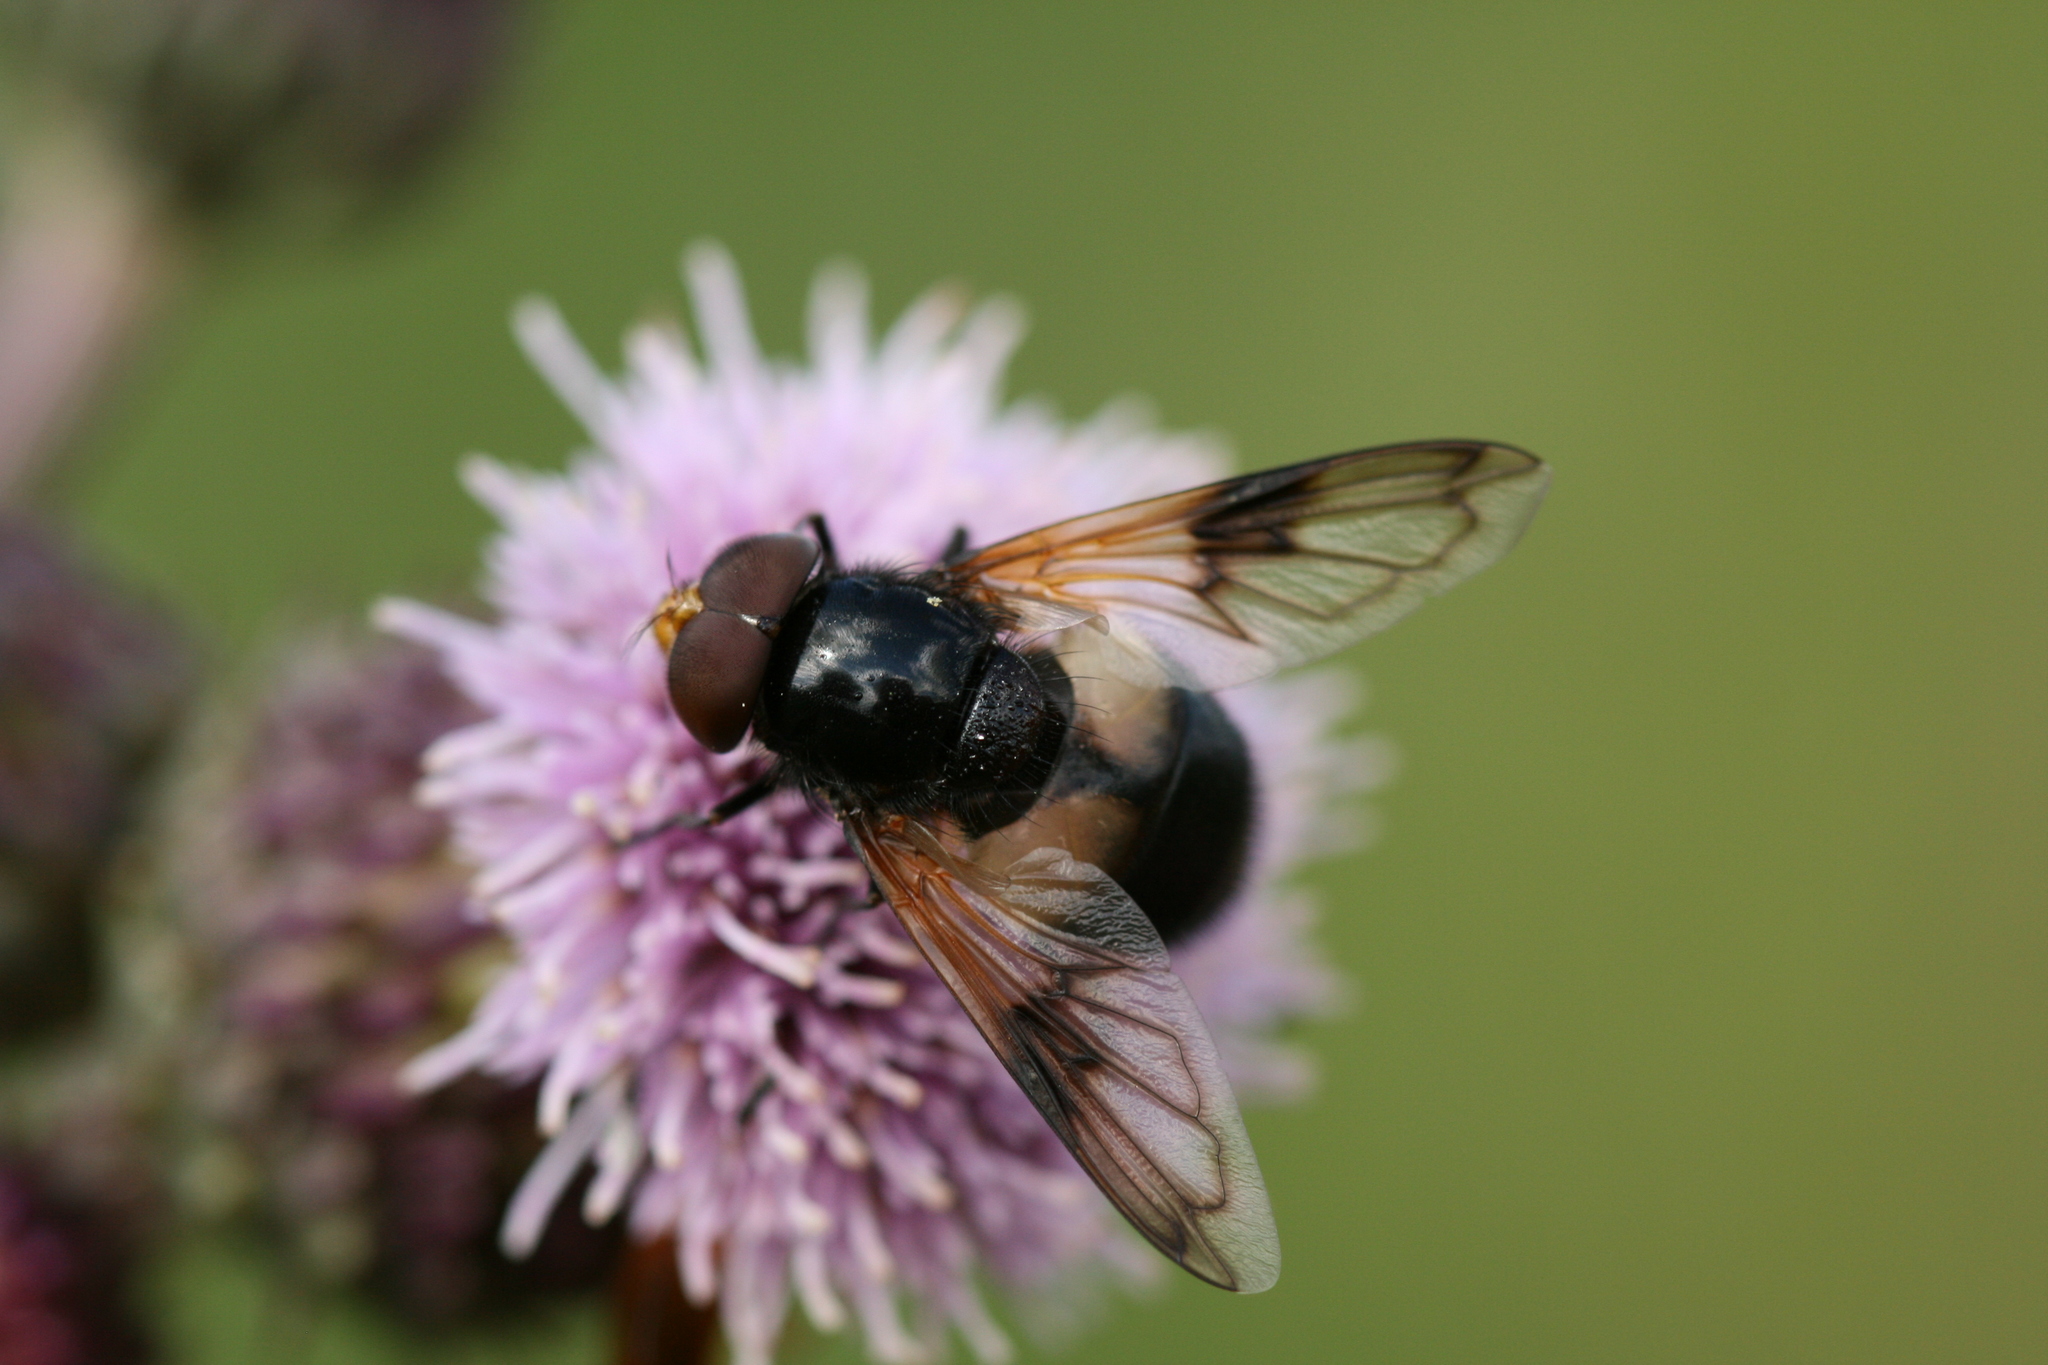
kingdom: Animalia
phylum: Arthropoda
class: Insecta
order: Diptera
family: Syrphidae
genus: Volucella
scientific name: Volucella pellucens
